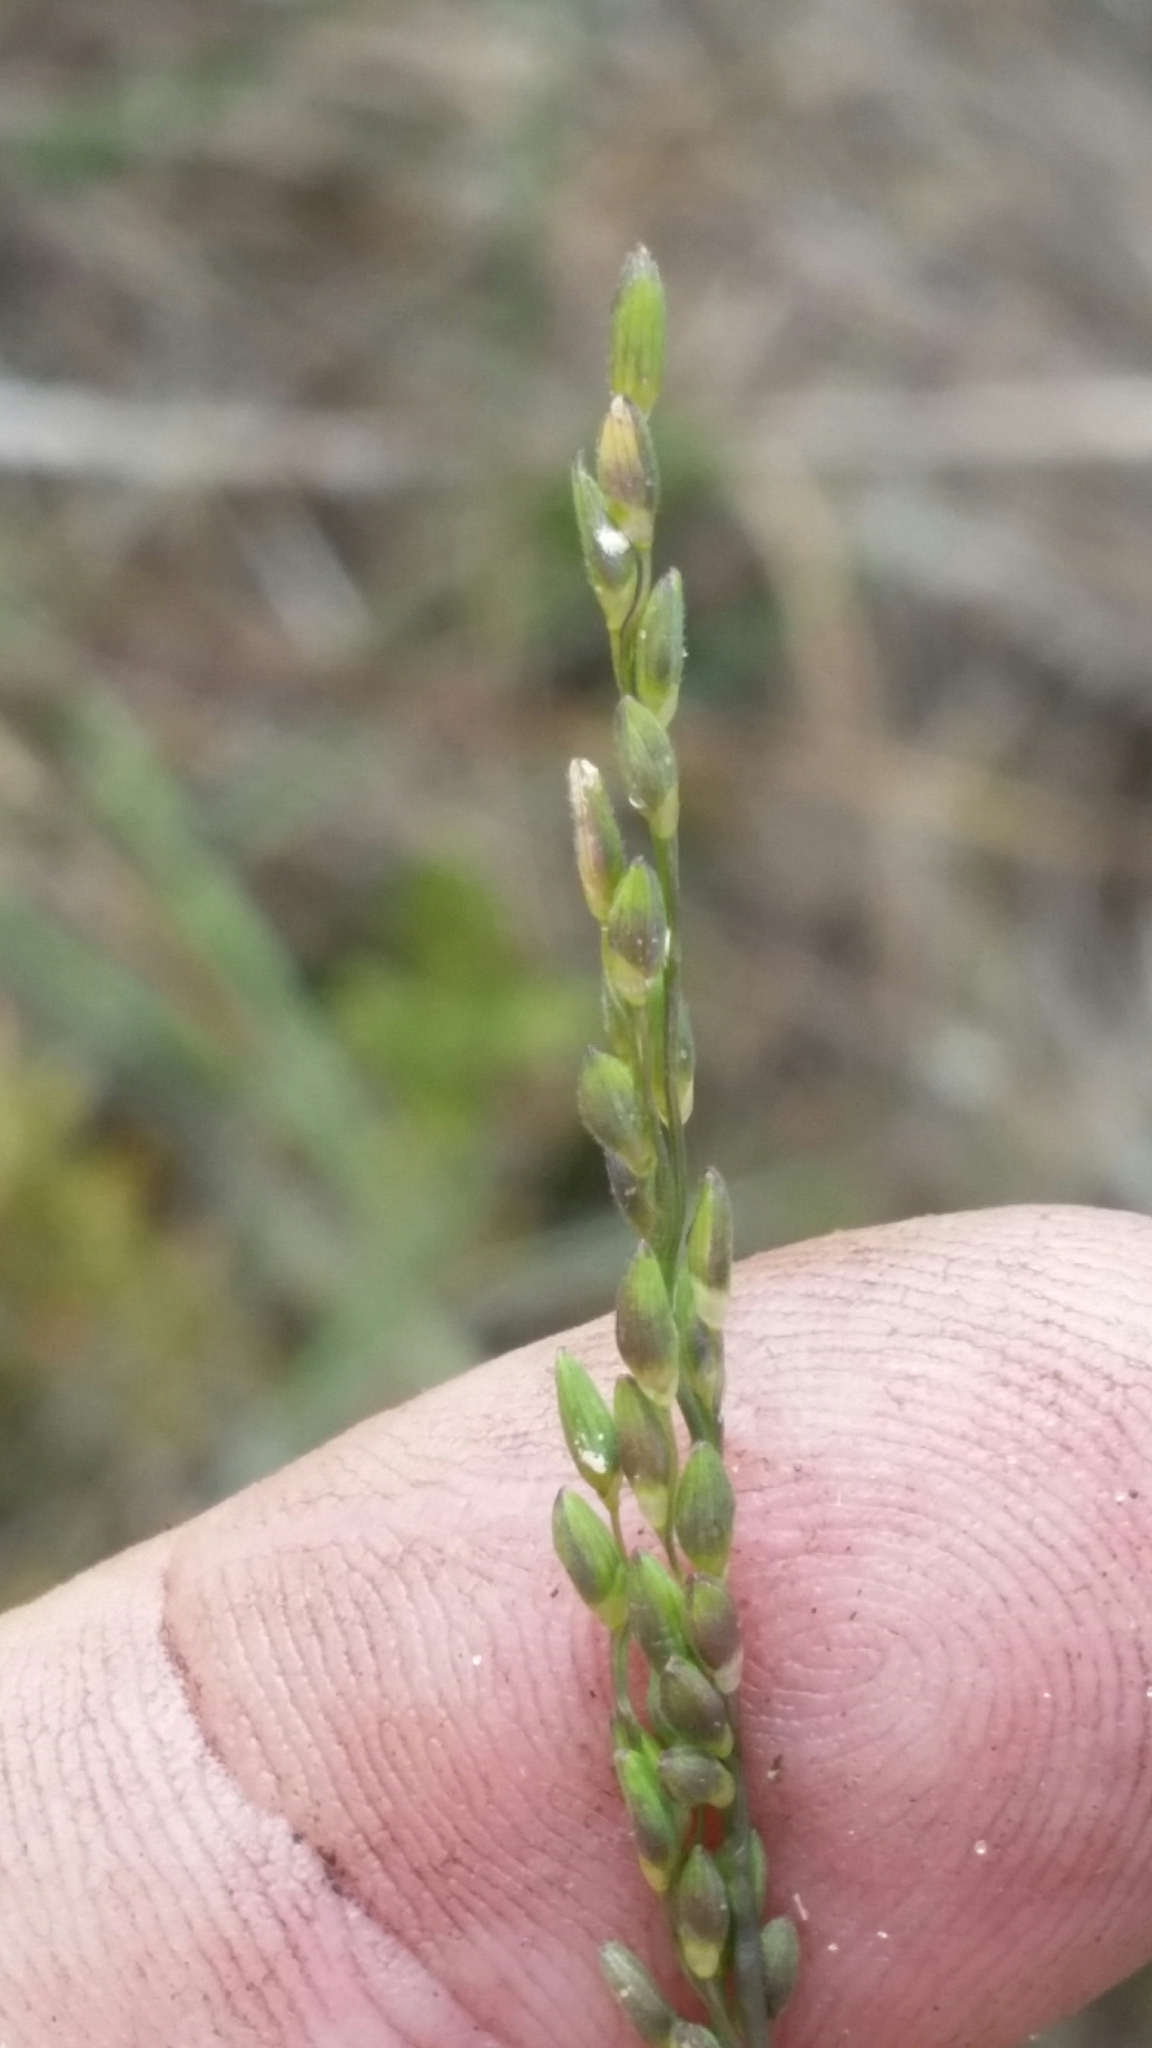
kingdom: Plantae
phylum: Tracheophyta
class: Liliopsida
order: Poales
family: Poaceae
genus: Dichanthelium
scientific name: Dichanthelium pinetorum
